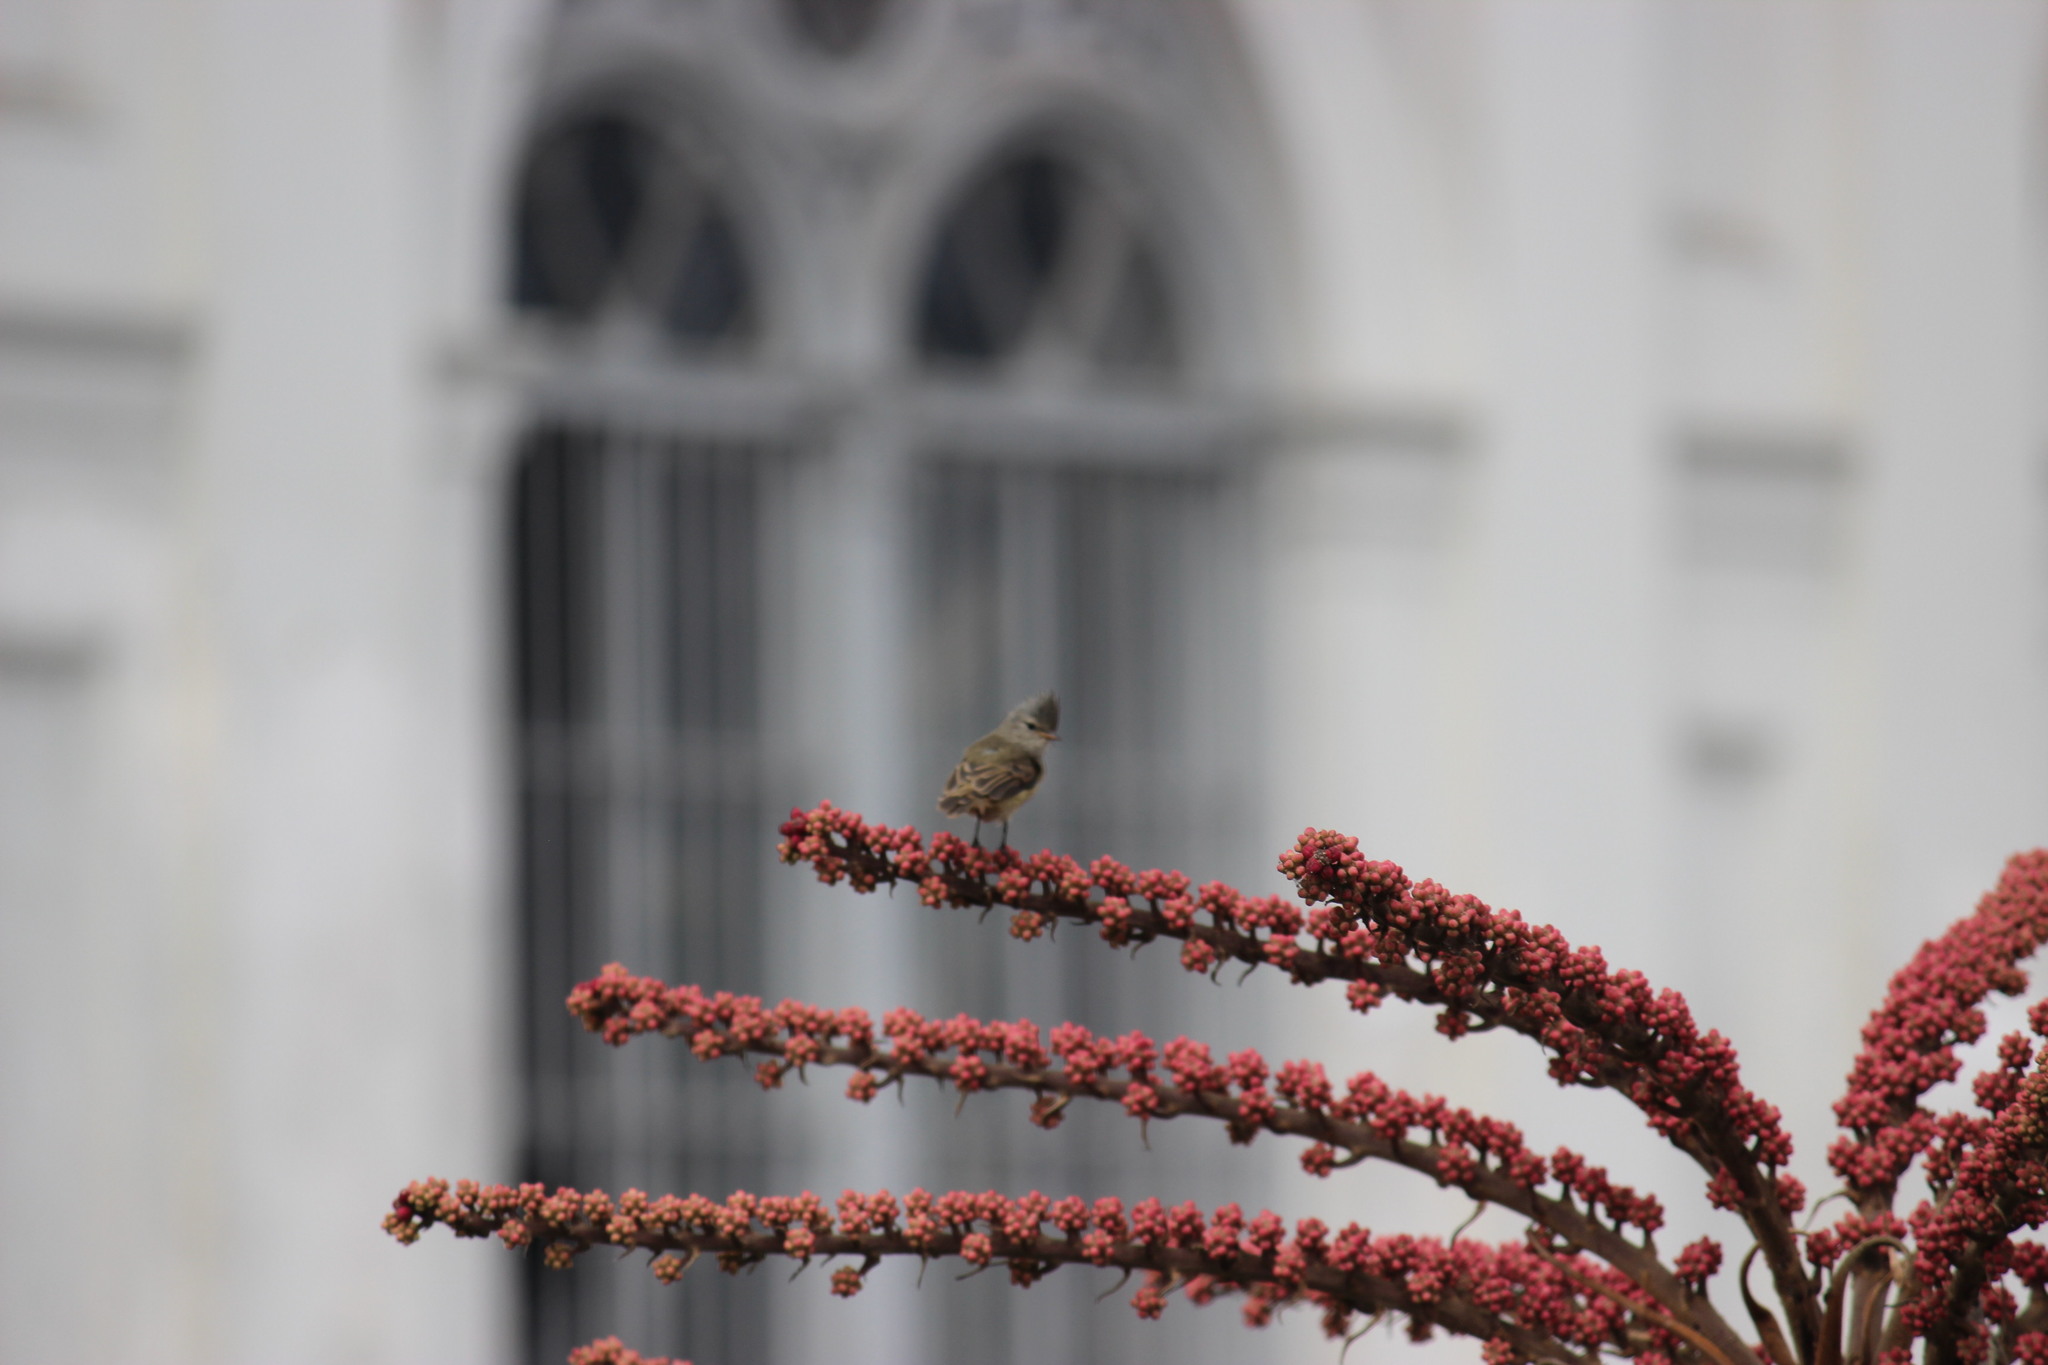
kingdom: Animalia
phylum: Chordata
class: Aves
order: Passeriformes
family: Tyrannidae
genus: Camptostoma
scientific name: Camptostoma obsoletum
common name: Southern beardless-tyrannulet
